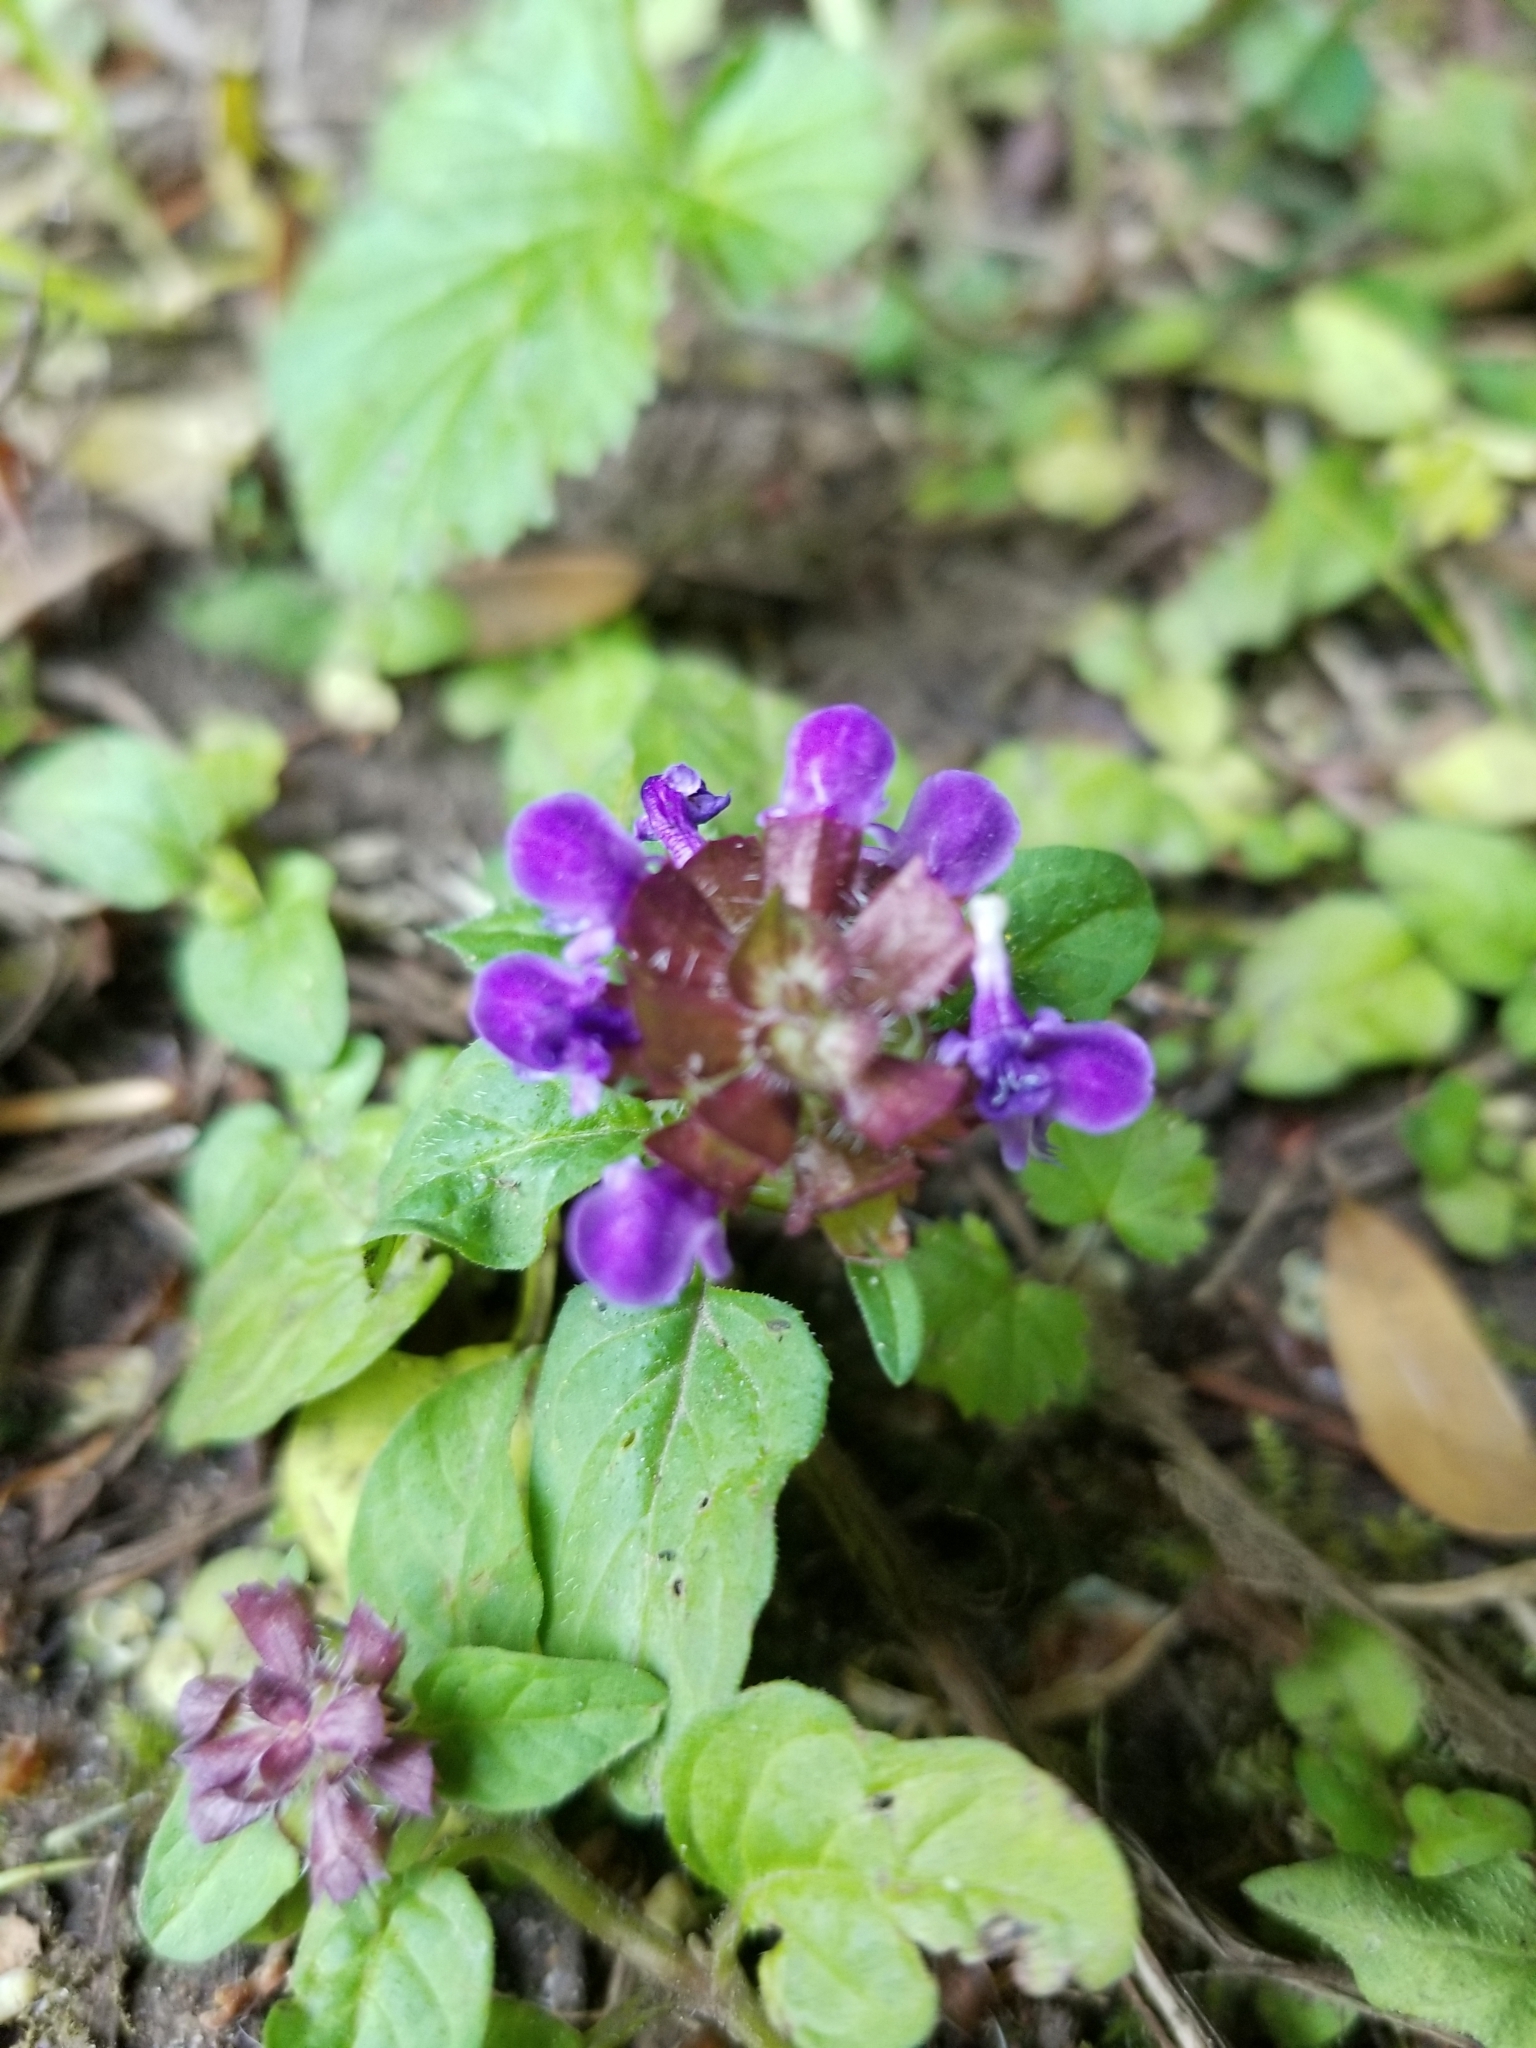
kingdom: Plantae
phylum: Tracheophyta
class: Magnoliopsida
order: Lamiales
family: Lamiaceae
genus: Prunella
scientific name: Prunella vulgaris
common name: Heal-all
